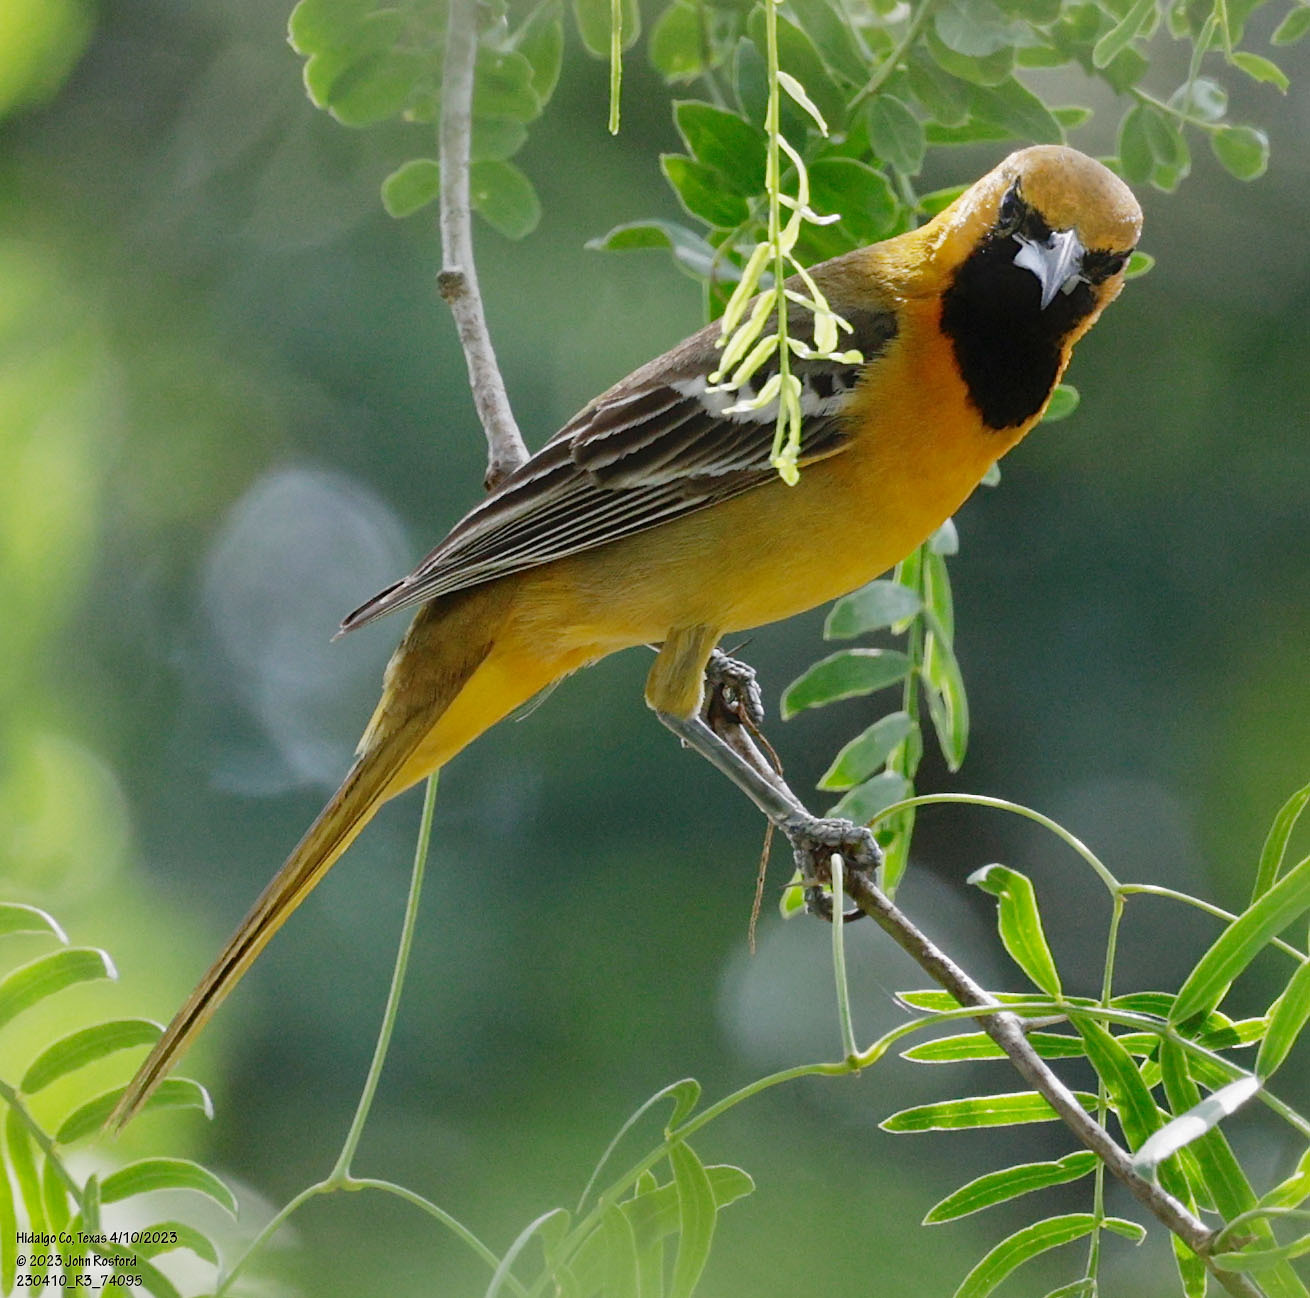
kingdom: Animalia
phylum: Chordata
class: Aves
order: Passeriformes
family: Icteridae
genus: Icterus
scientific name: Icterus cucullatus
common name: Hooded oriole
